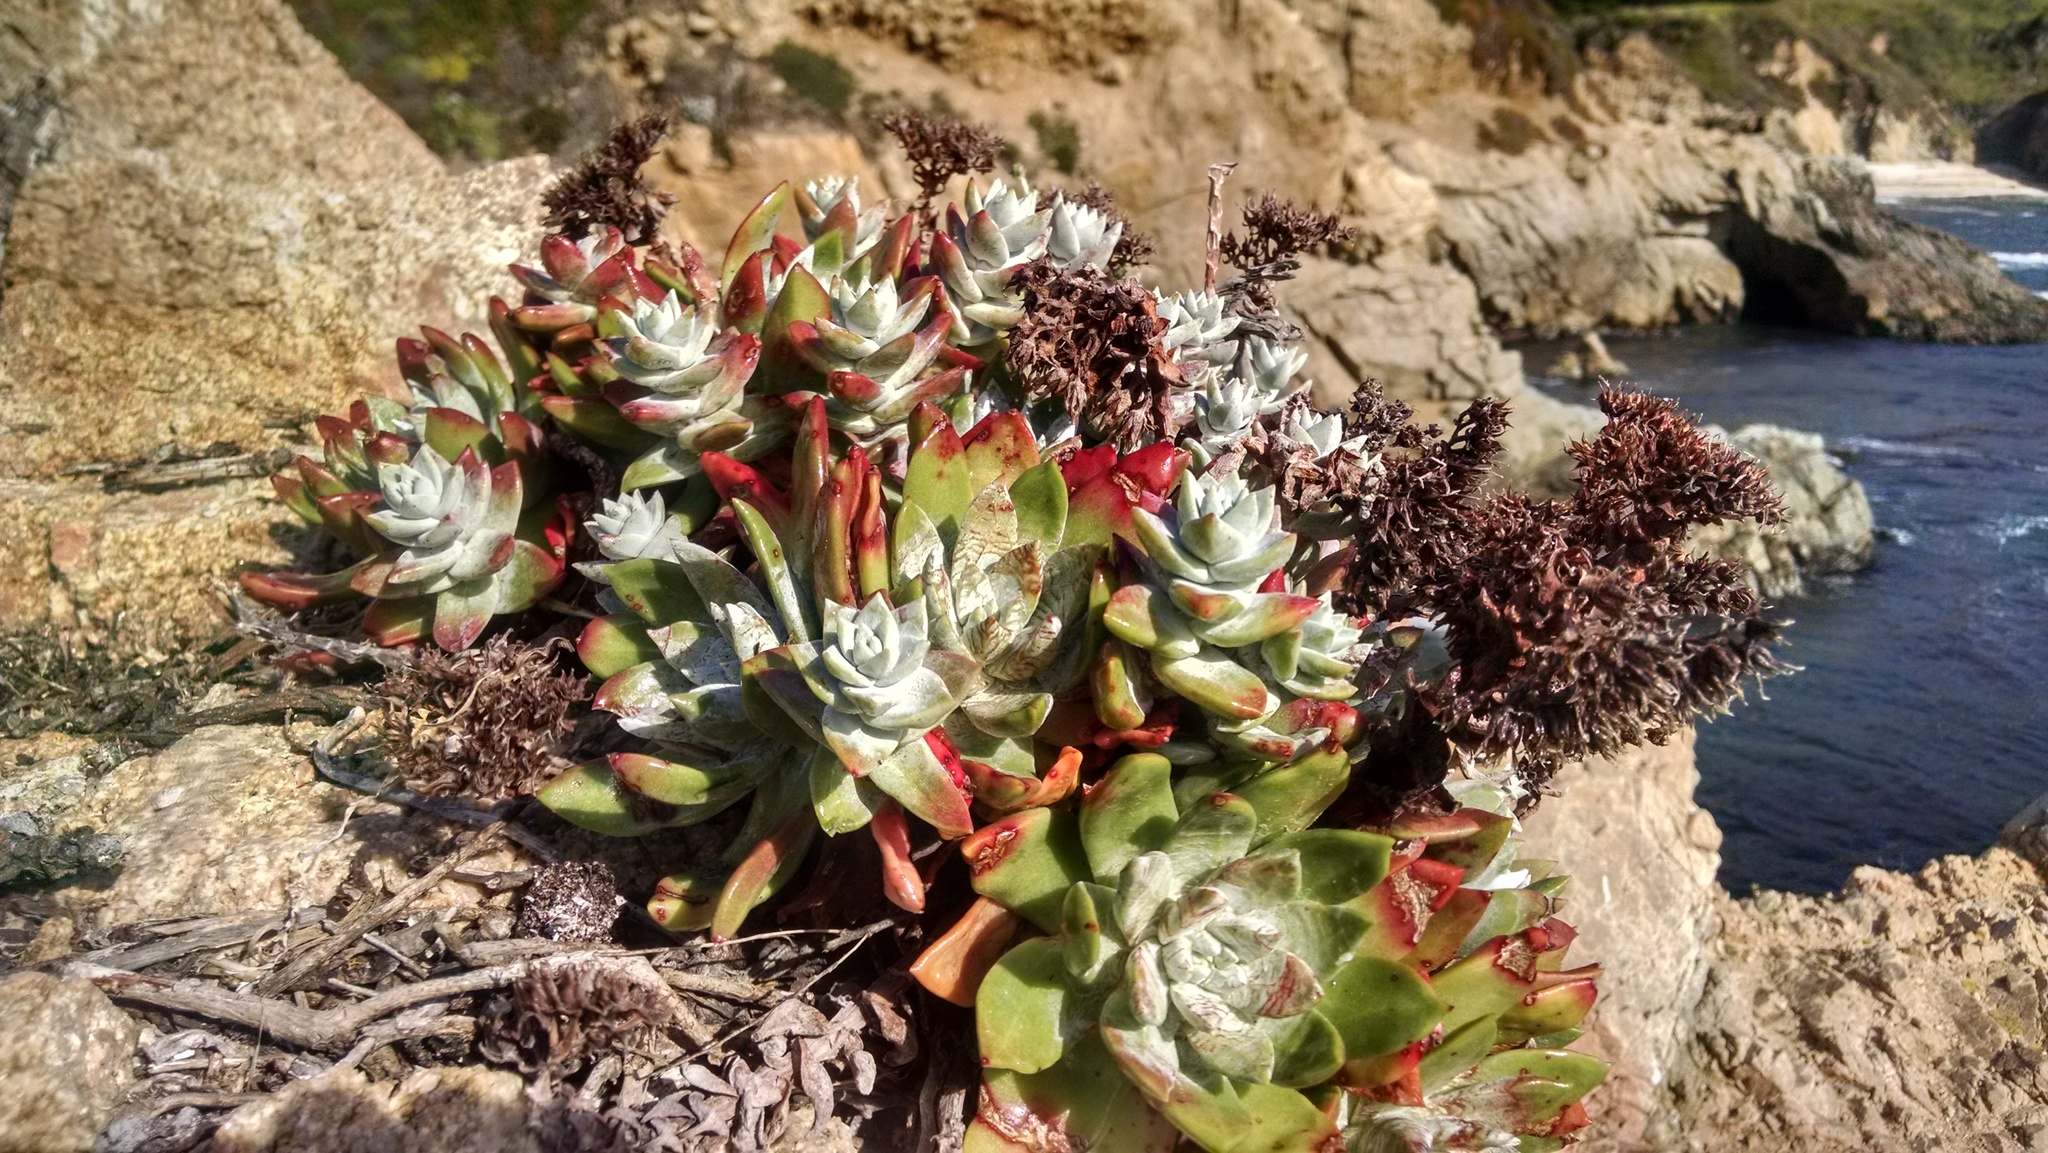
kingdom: Plantae
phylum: Tracheophyta
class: Magnoliopsida
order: Saxifragales
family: Crassulaceae
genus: Dudleya
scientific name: Dudleya farinosa
